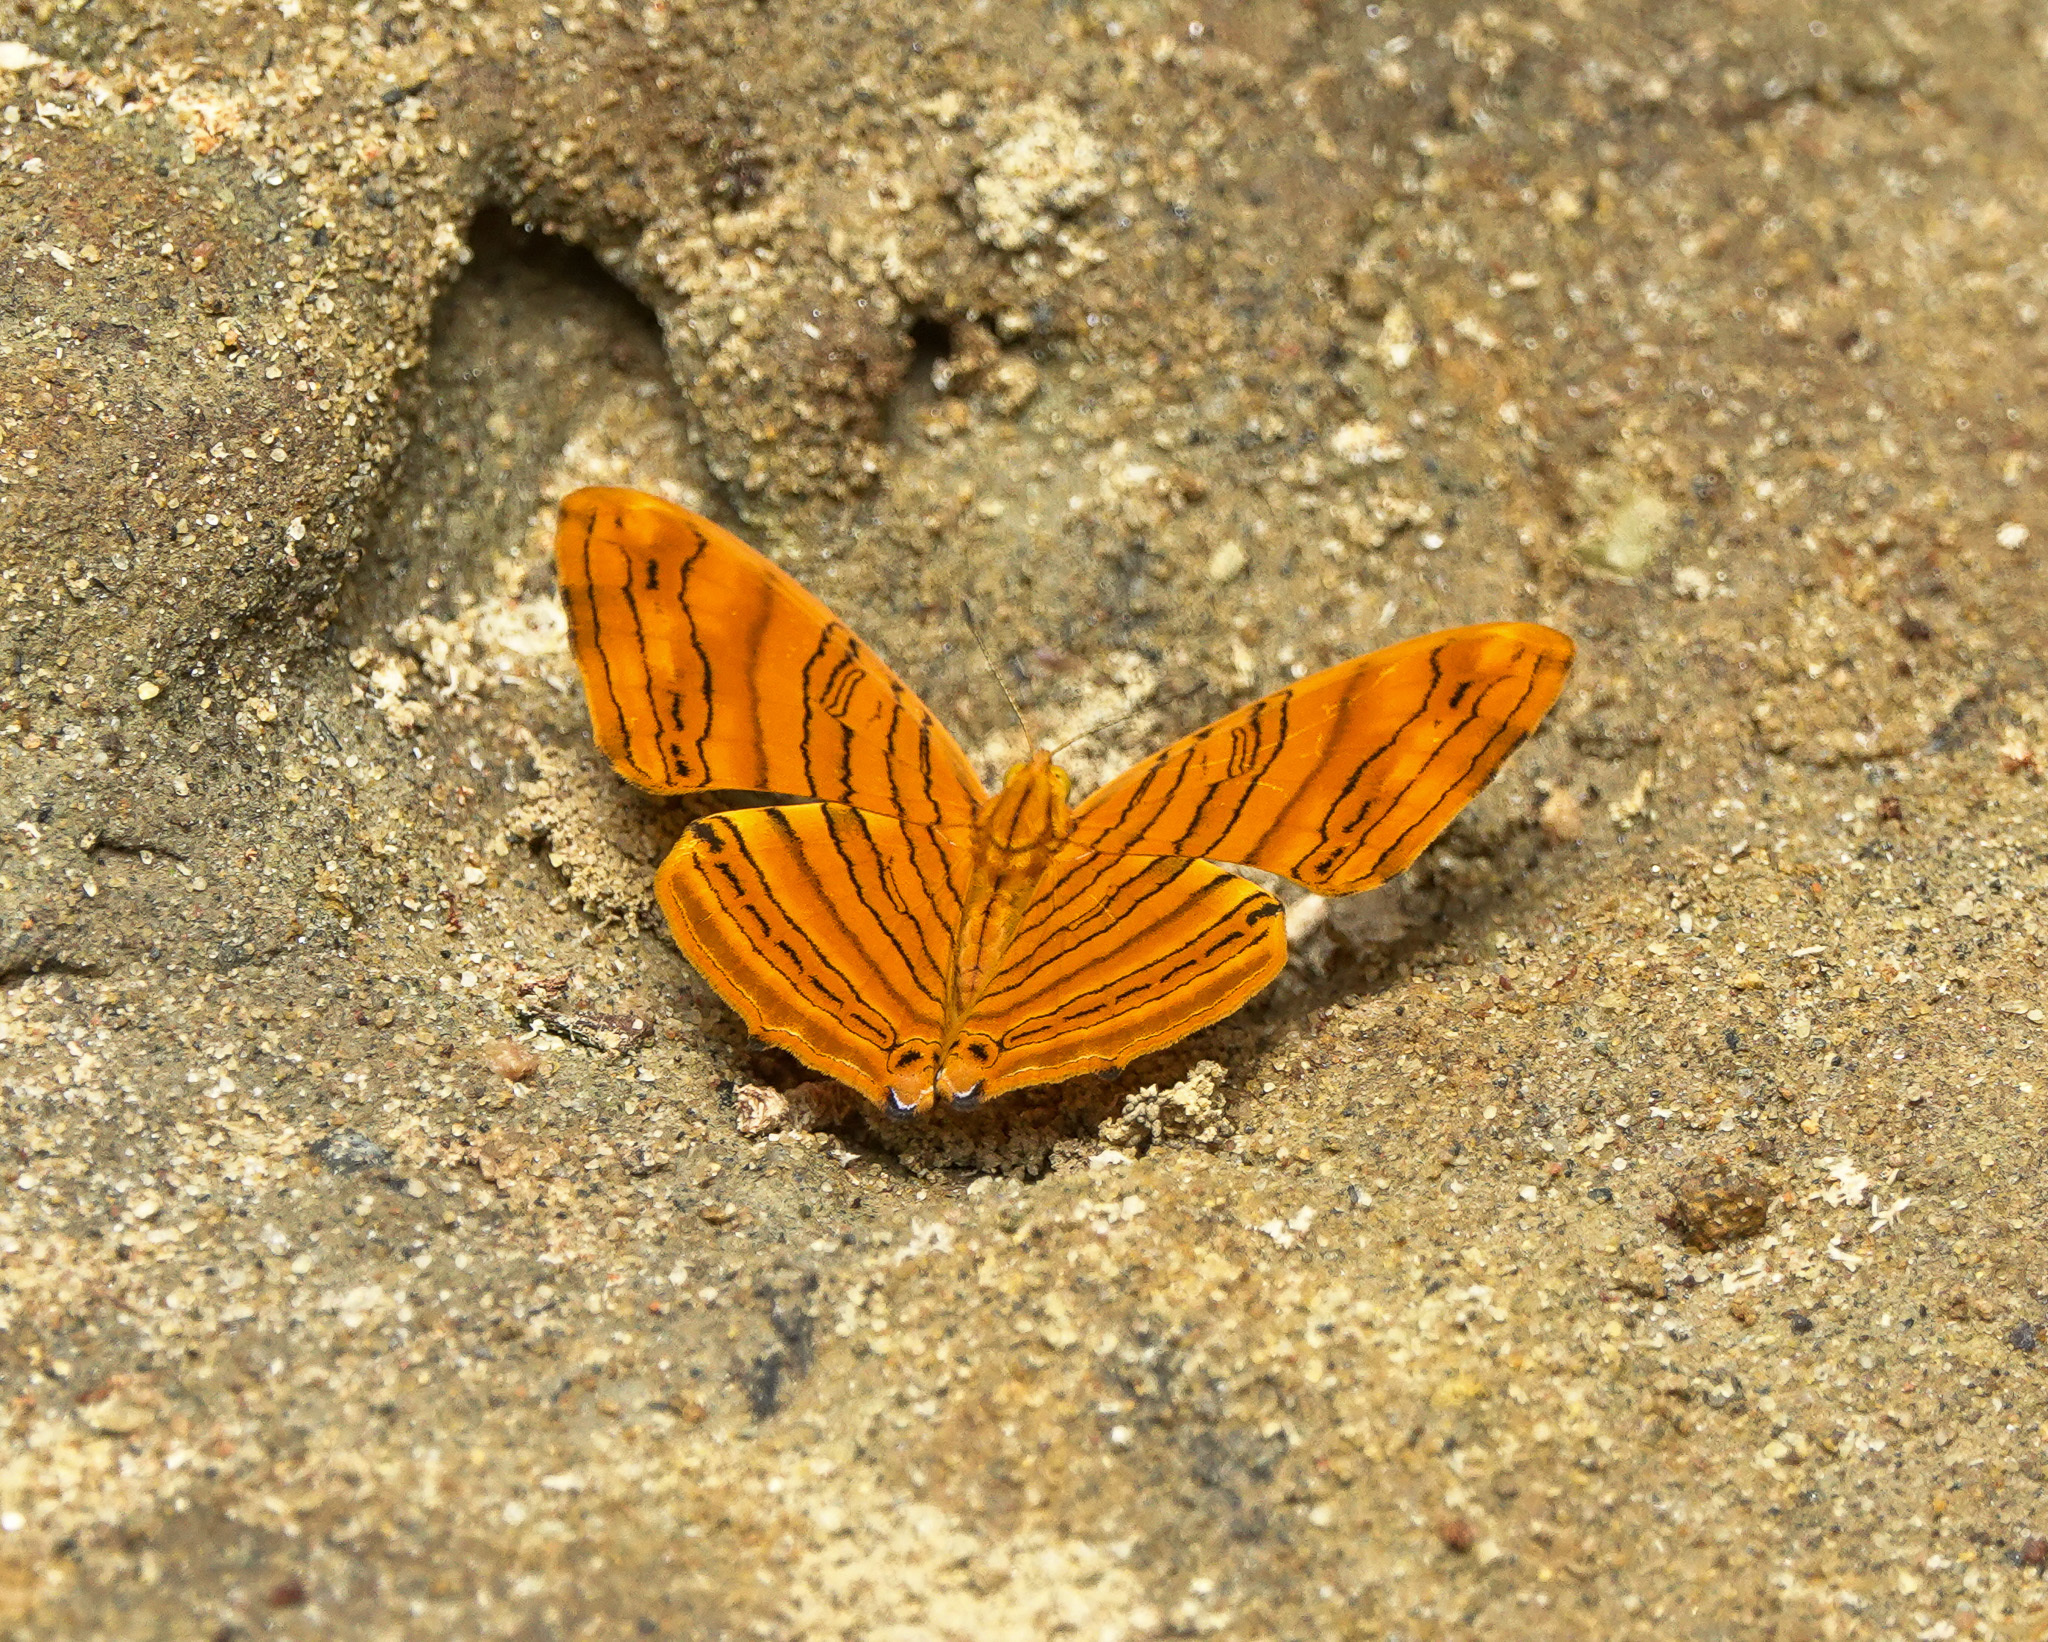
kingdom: Animalia
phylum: Arthropoda
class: Insecta
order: Lepidoptera
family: Nymphalidae
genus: Chersonesia
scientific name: Chersonesia risa
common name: Common maplet
